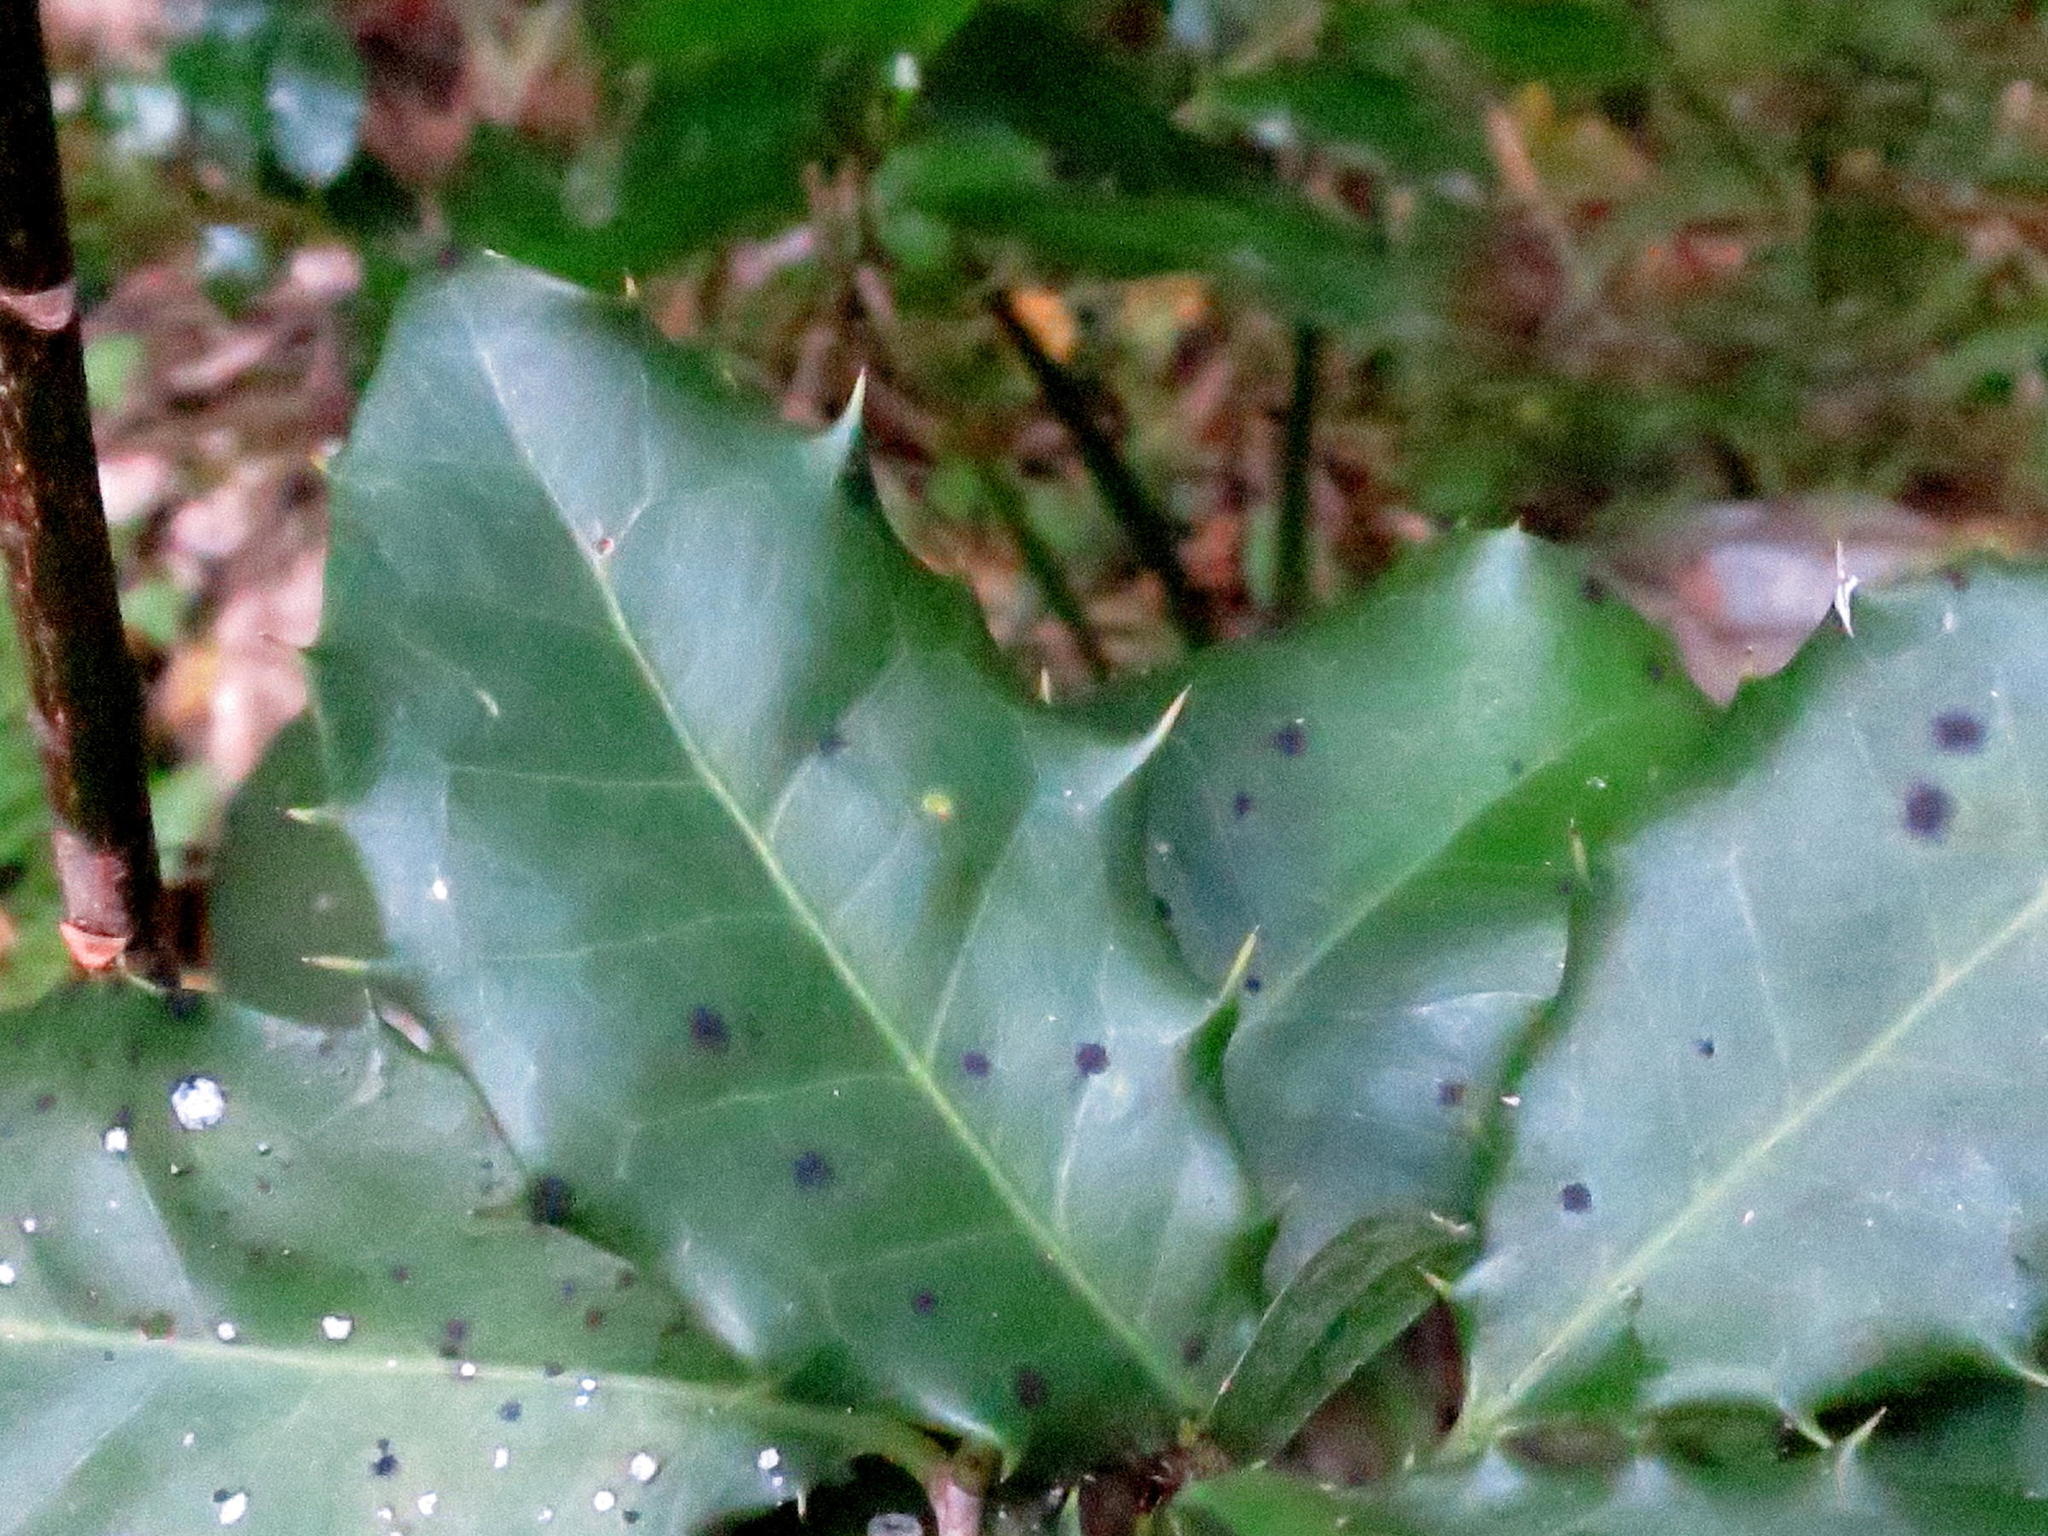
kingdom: Plantae
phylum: Tracheophyta
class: Magnoliopsida
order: Celastrales
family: Celastraceae
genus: Elaeodendron
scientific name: Elaeodendron croceum
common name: Saffron
